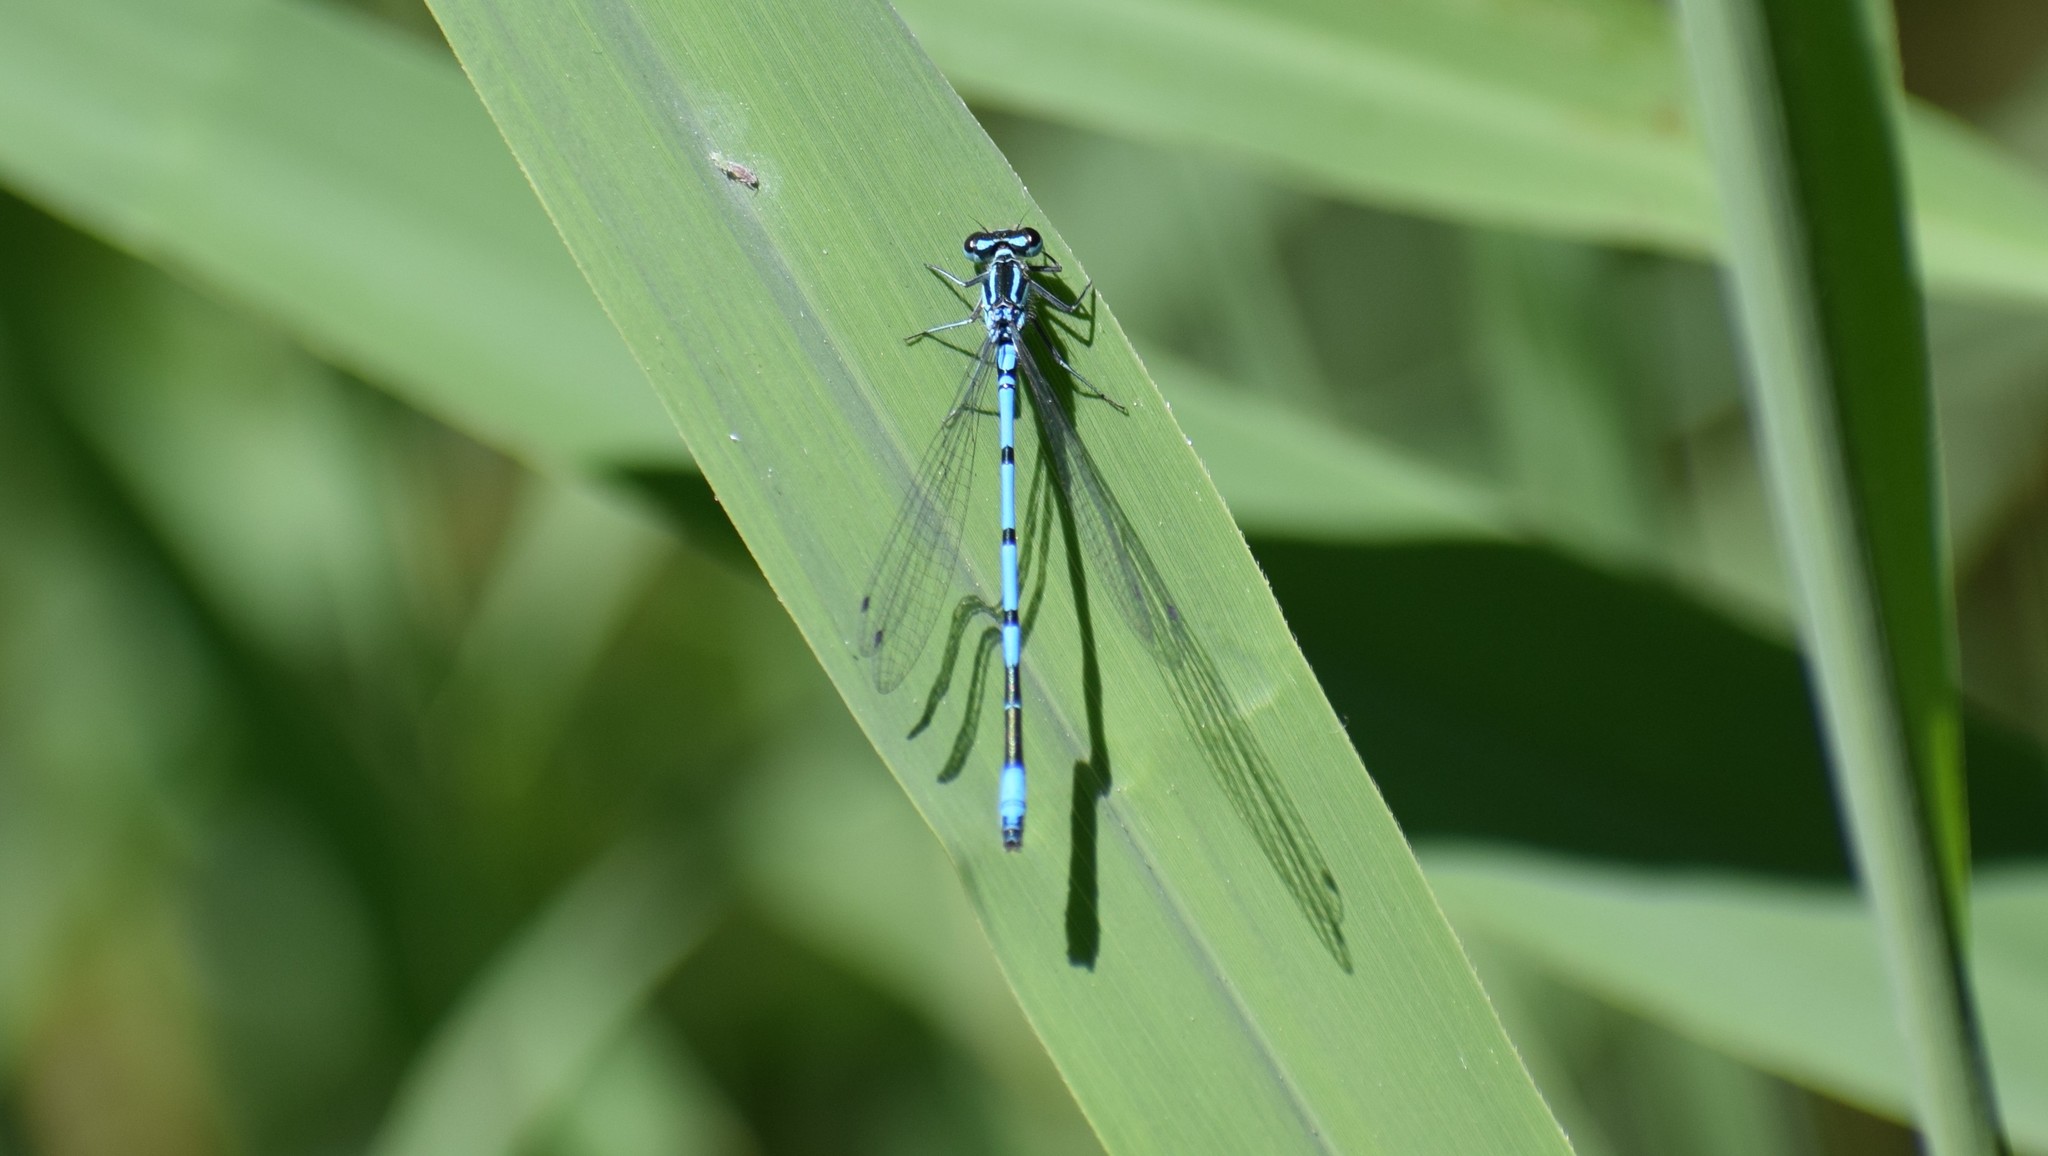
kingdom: Animalia
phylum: Arthropoda
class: Insecta
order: Odonata
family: Coenagrionidae
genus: Coenagrion
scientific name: Coenagrion puella
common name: Azure damselfly
